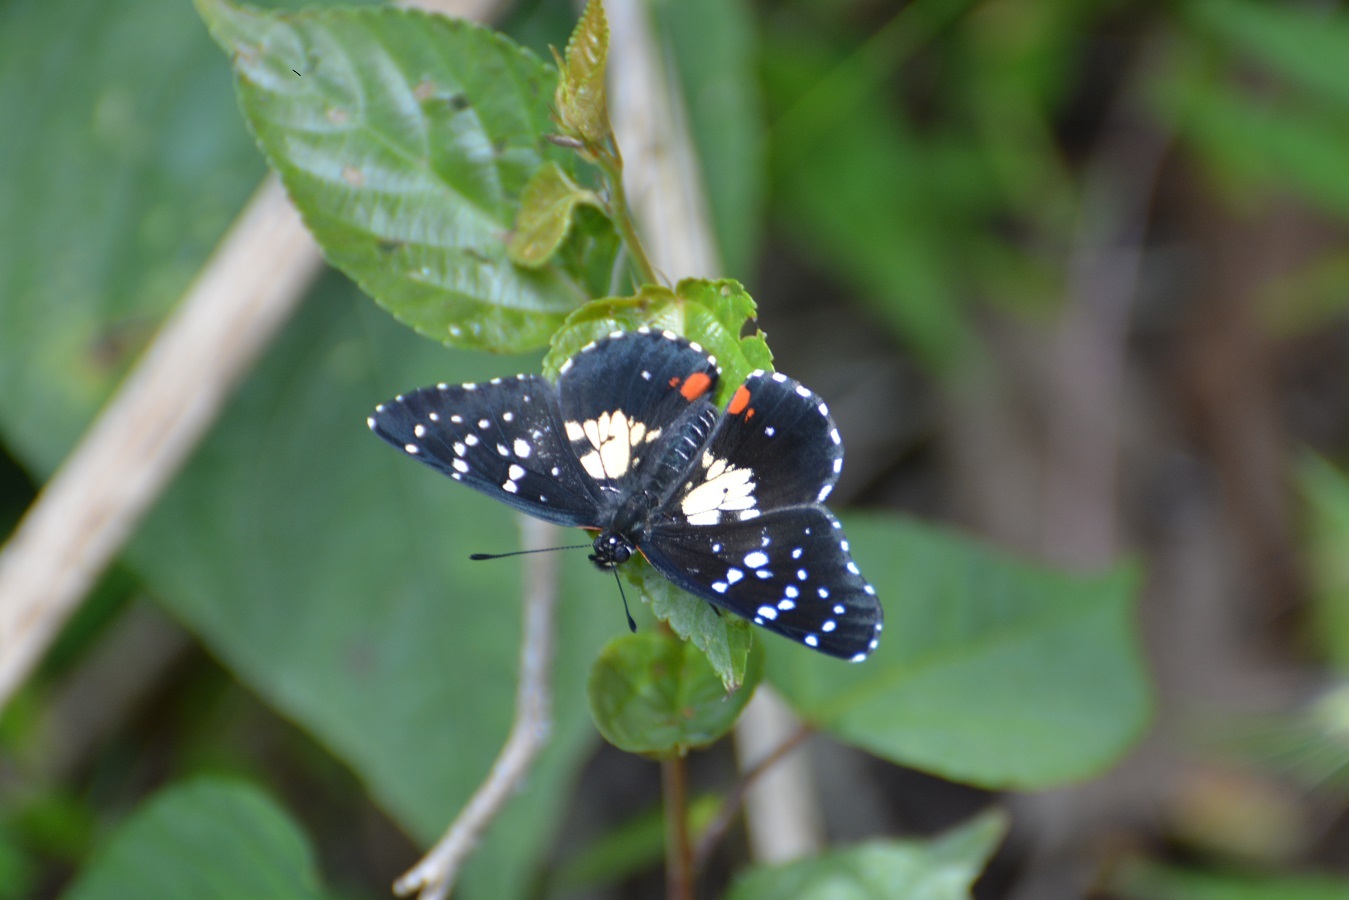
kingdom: Animalia
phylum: Arthropoda
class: Insecta
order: Lepidoptera
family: Nymphalidae
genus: Chlosyne
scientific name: Chlosyne erodyle
